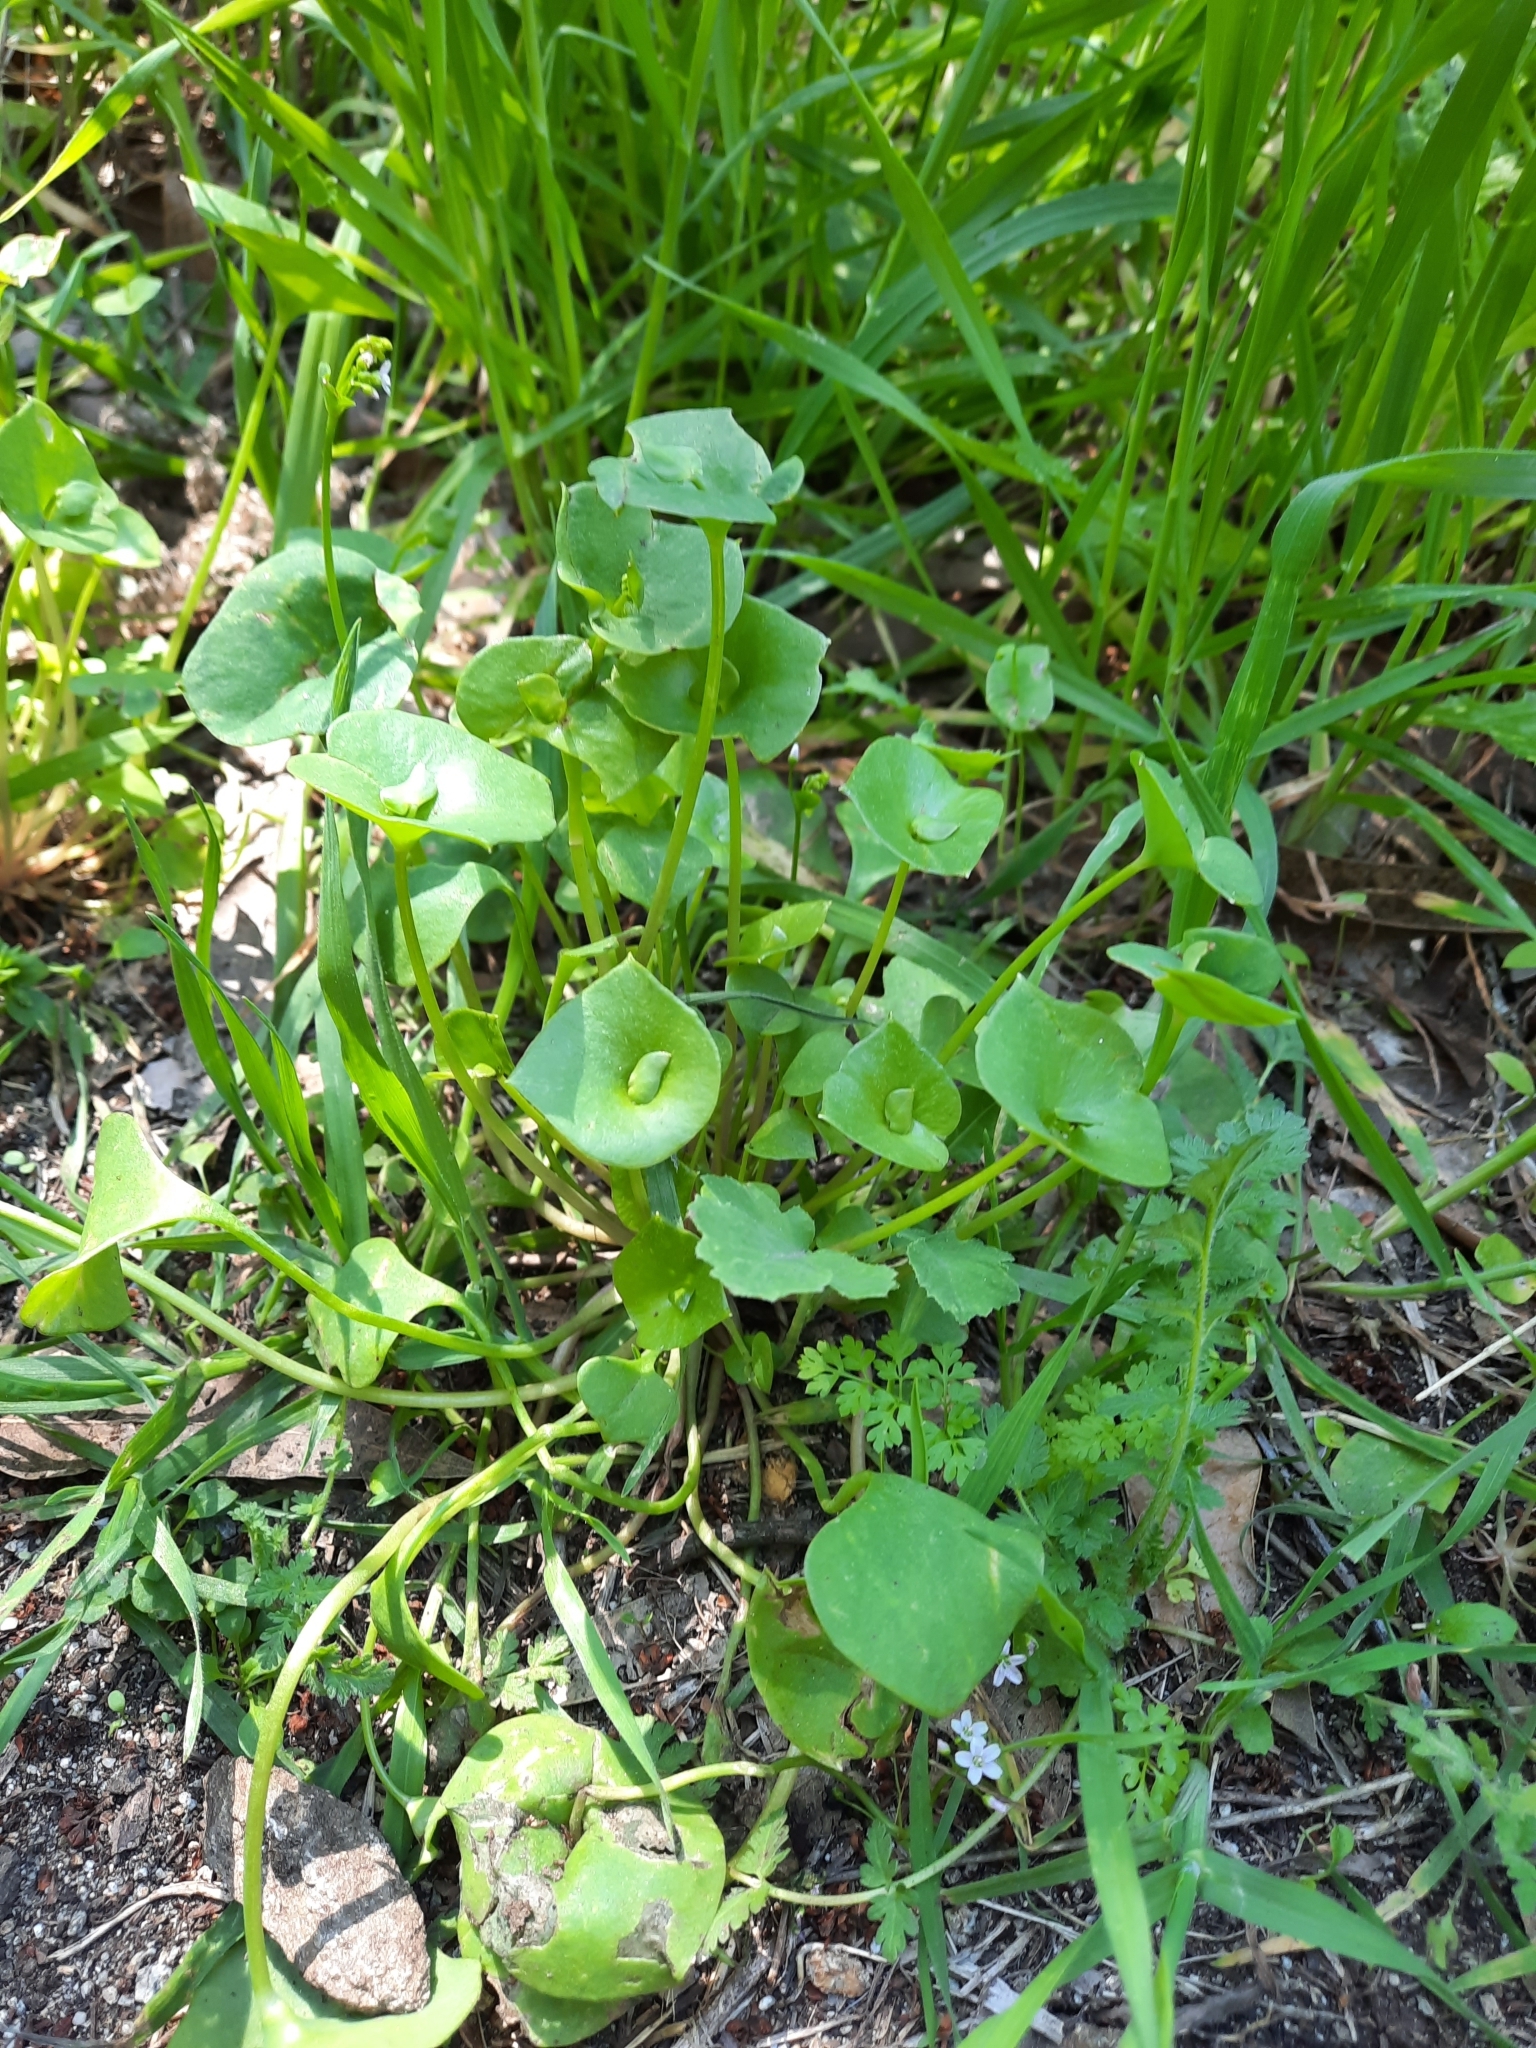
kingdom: Plantae
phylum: Tracheophyta
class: Magnoliopsida
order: Caryophyllales
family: Montiaceae
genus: Claytonia
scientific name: Claytonia perfoliata
